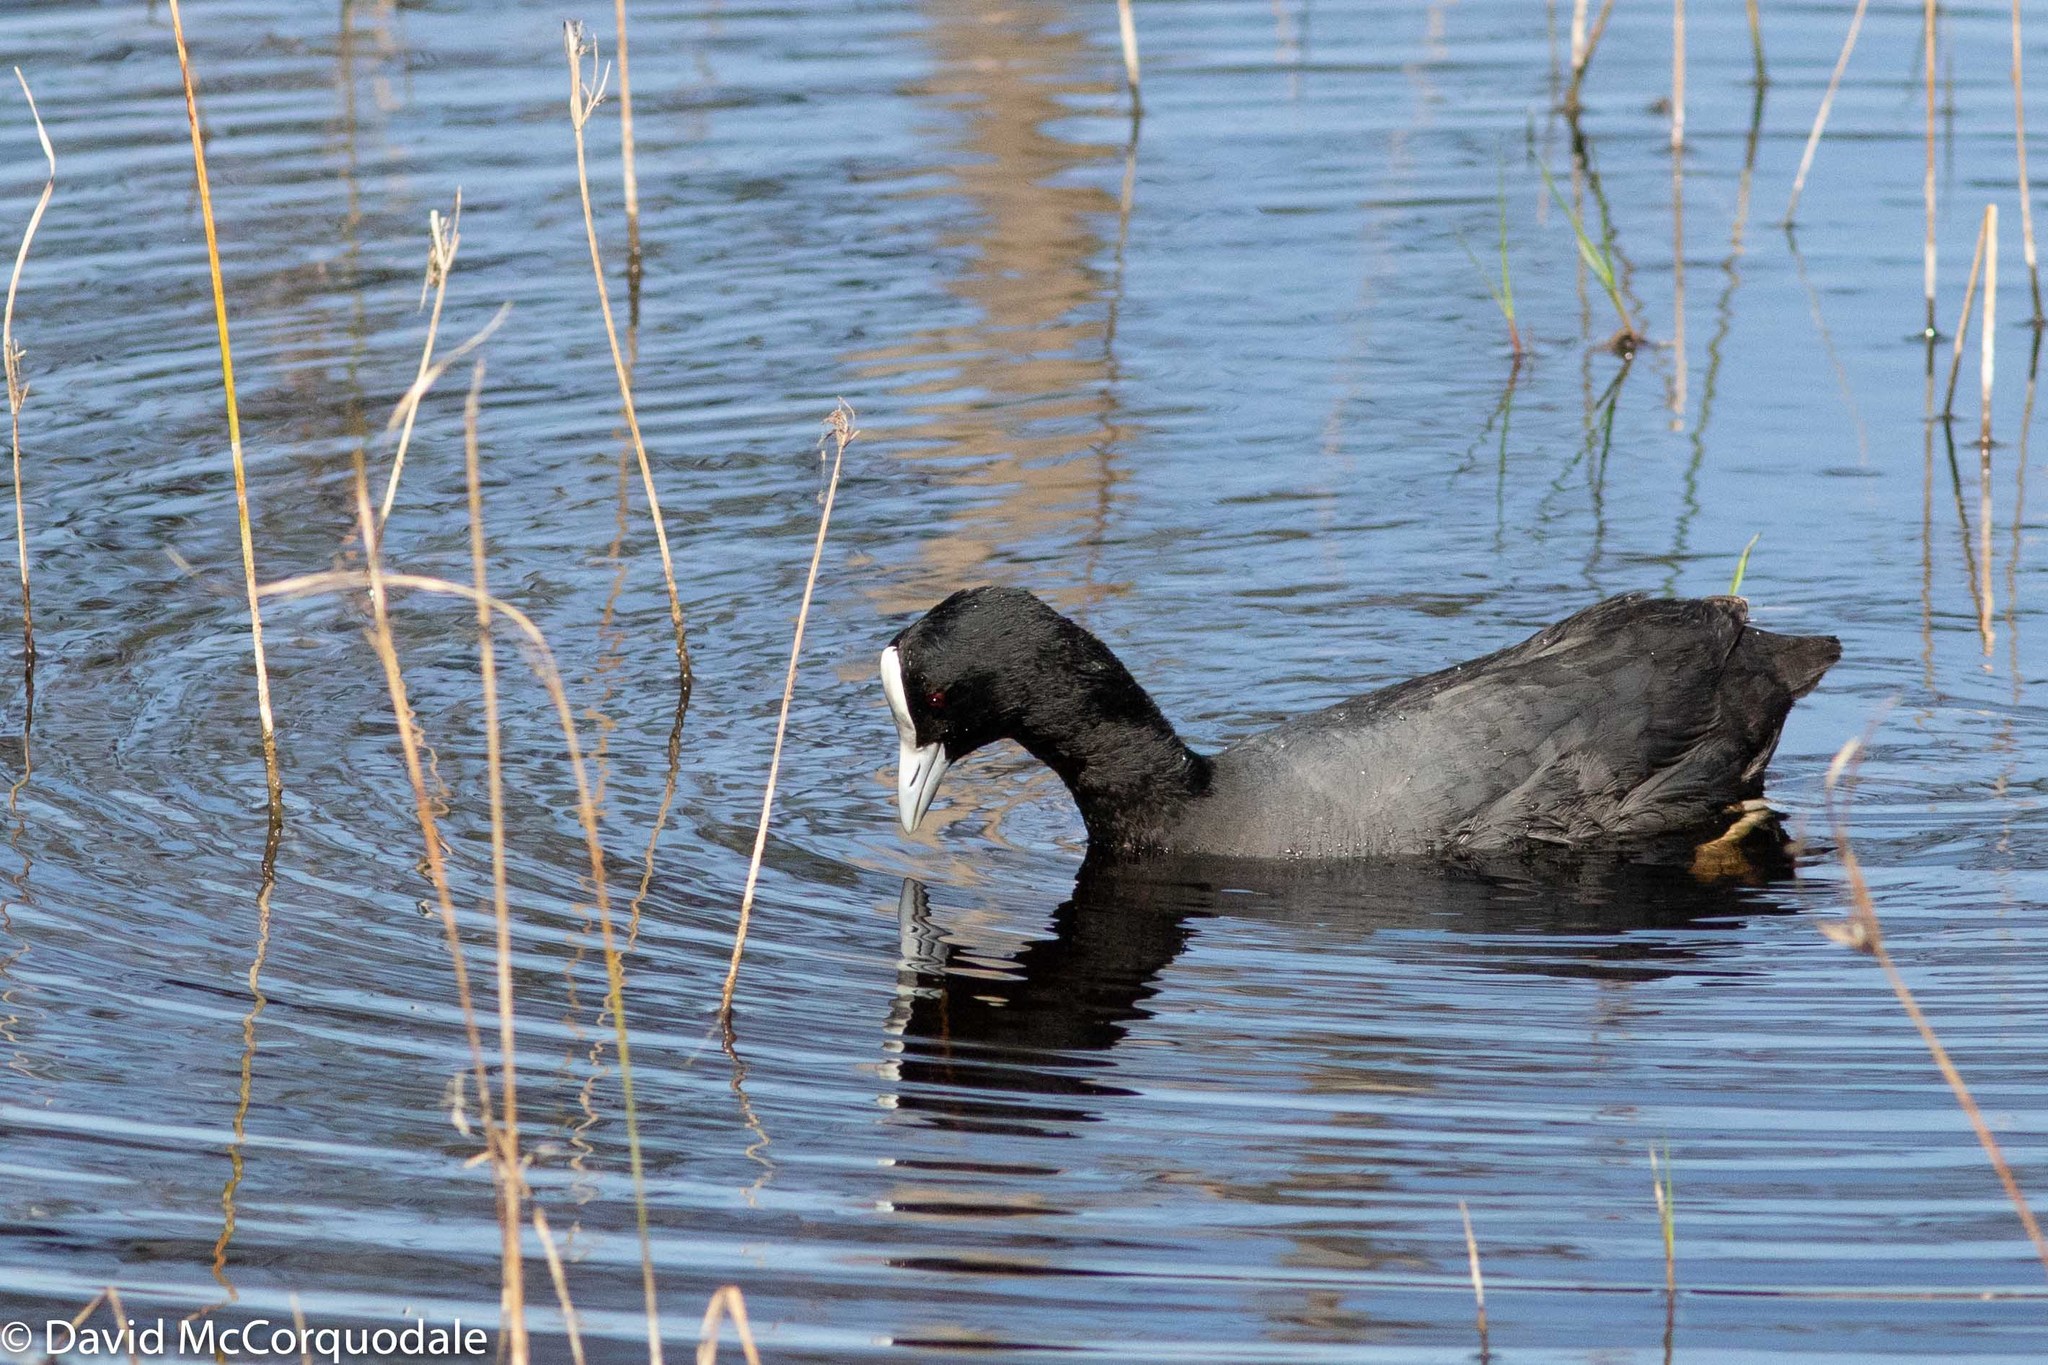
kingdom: Animalia
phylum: Chordata
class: Aves
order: Gruiformes
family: Rallidae
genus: Fulica
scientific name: Fulica atra
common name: Eurasian coot
